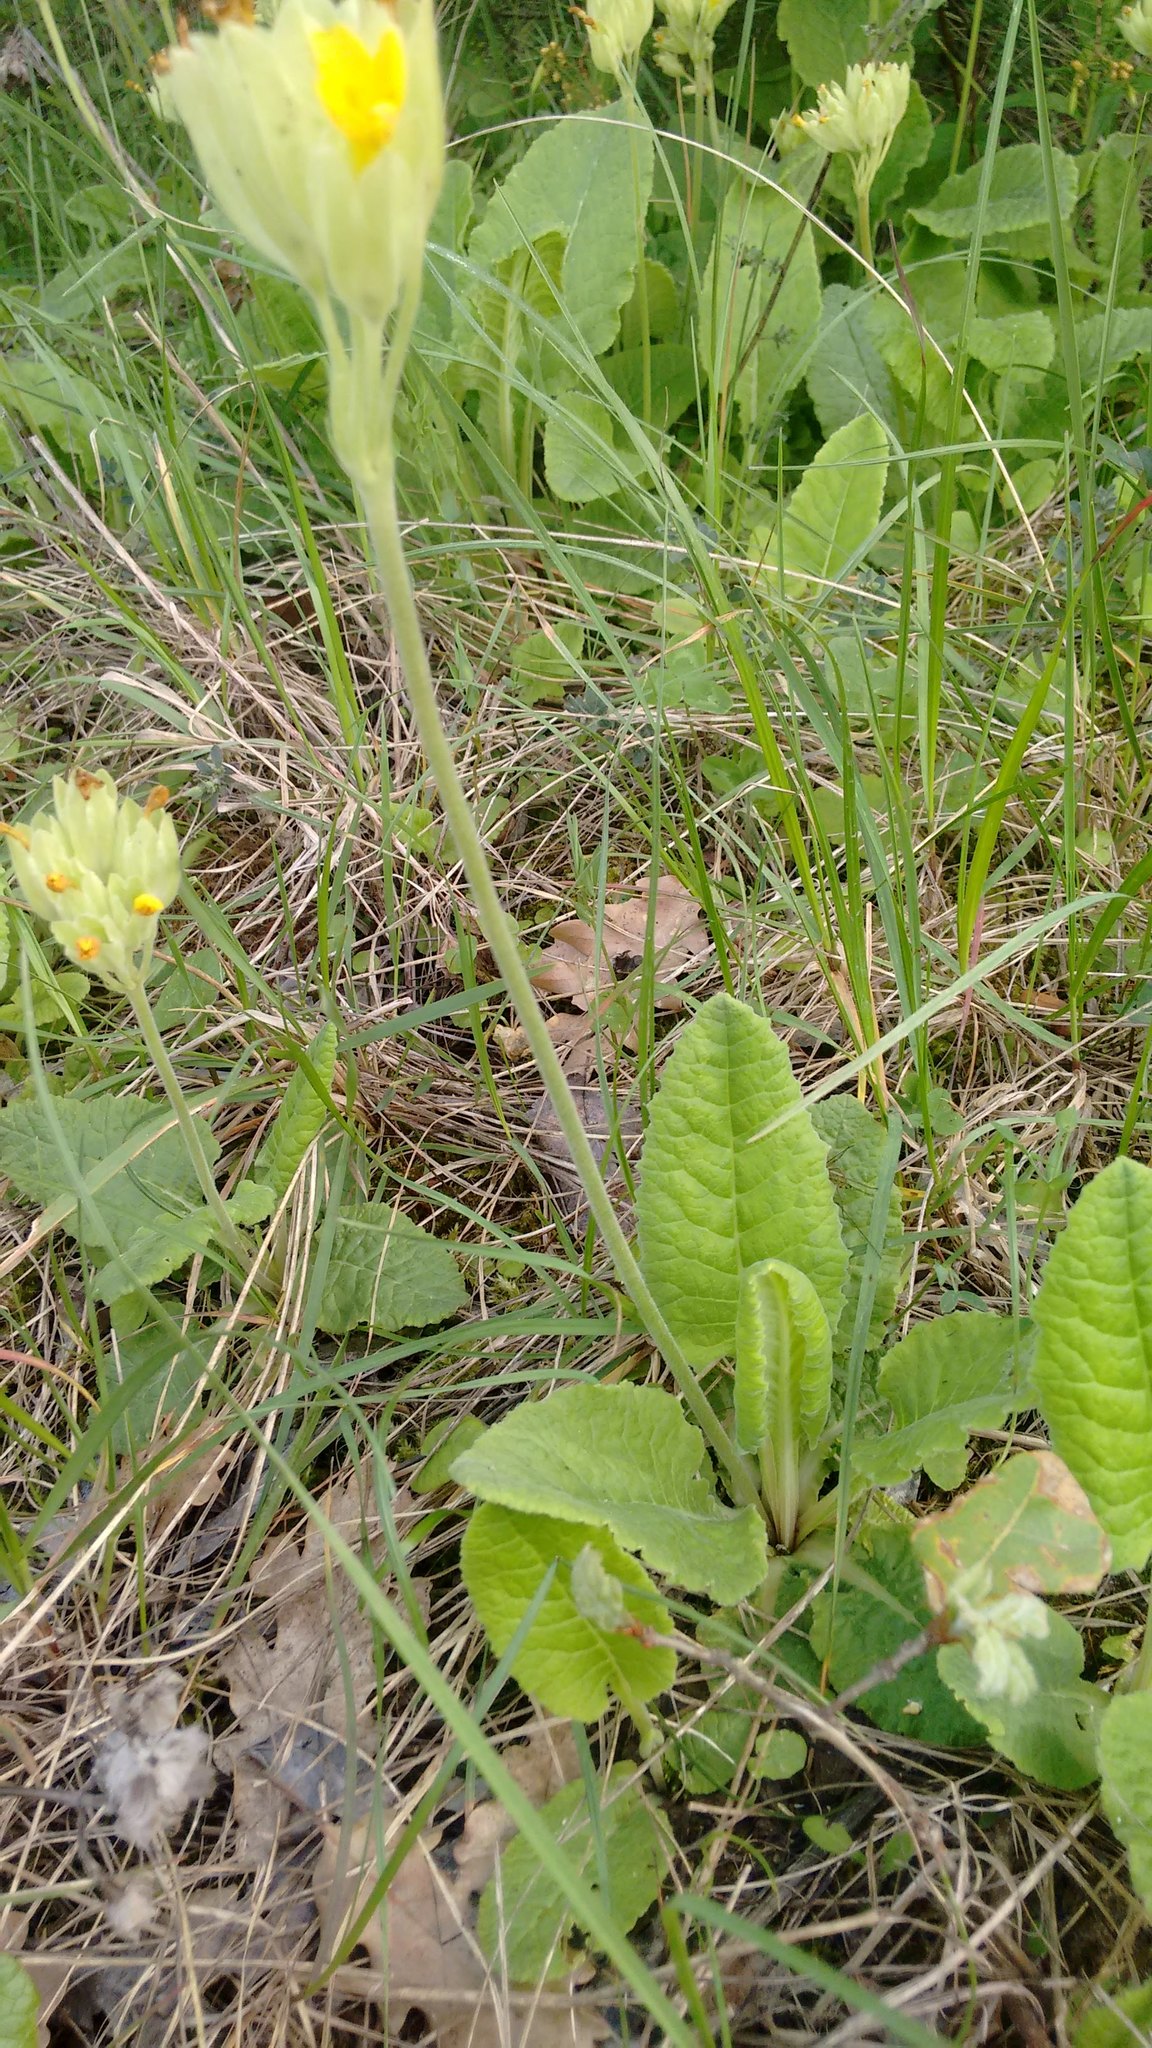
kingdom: Plantae
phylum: Tracheophyta
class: Magnoliopsida
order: Ericales
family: Primulaceae
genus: Primula
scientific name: Primula veris
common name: Cowslip
